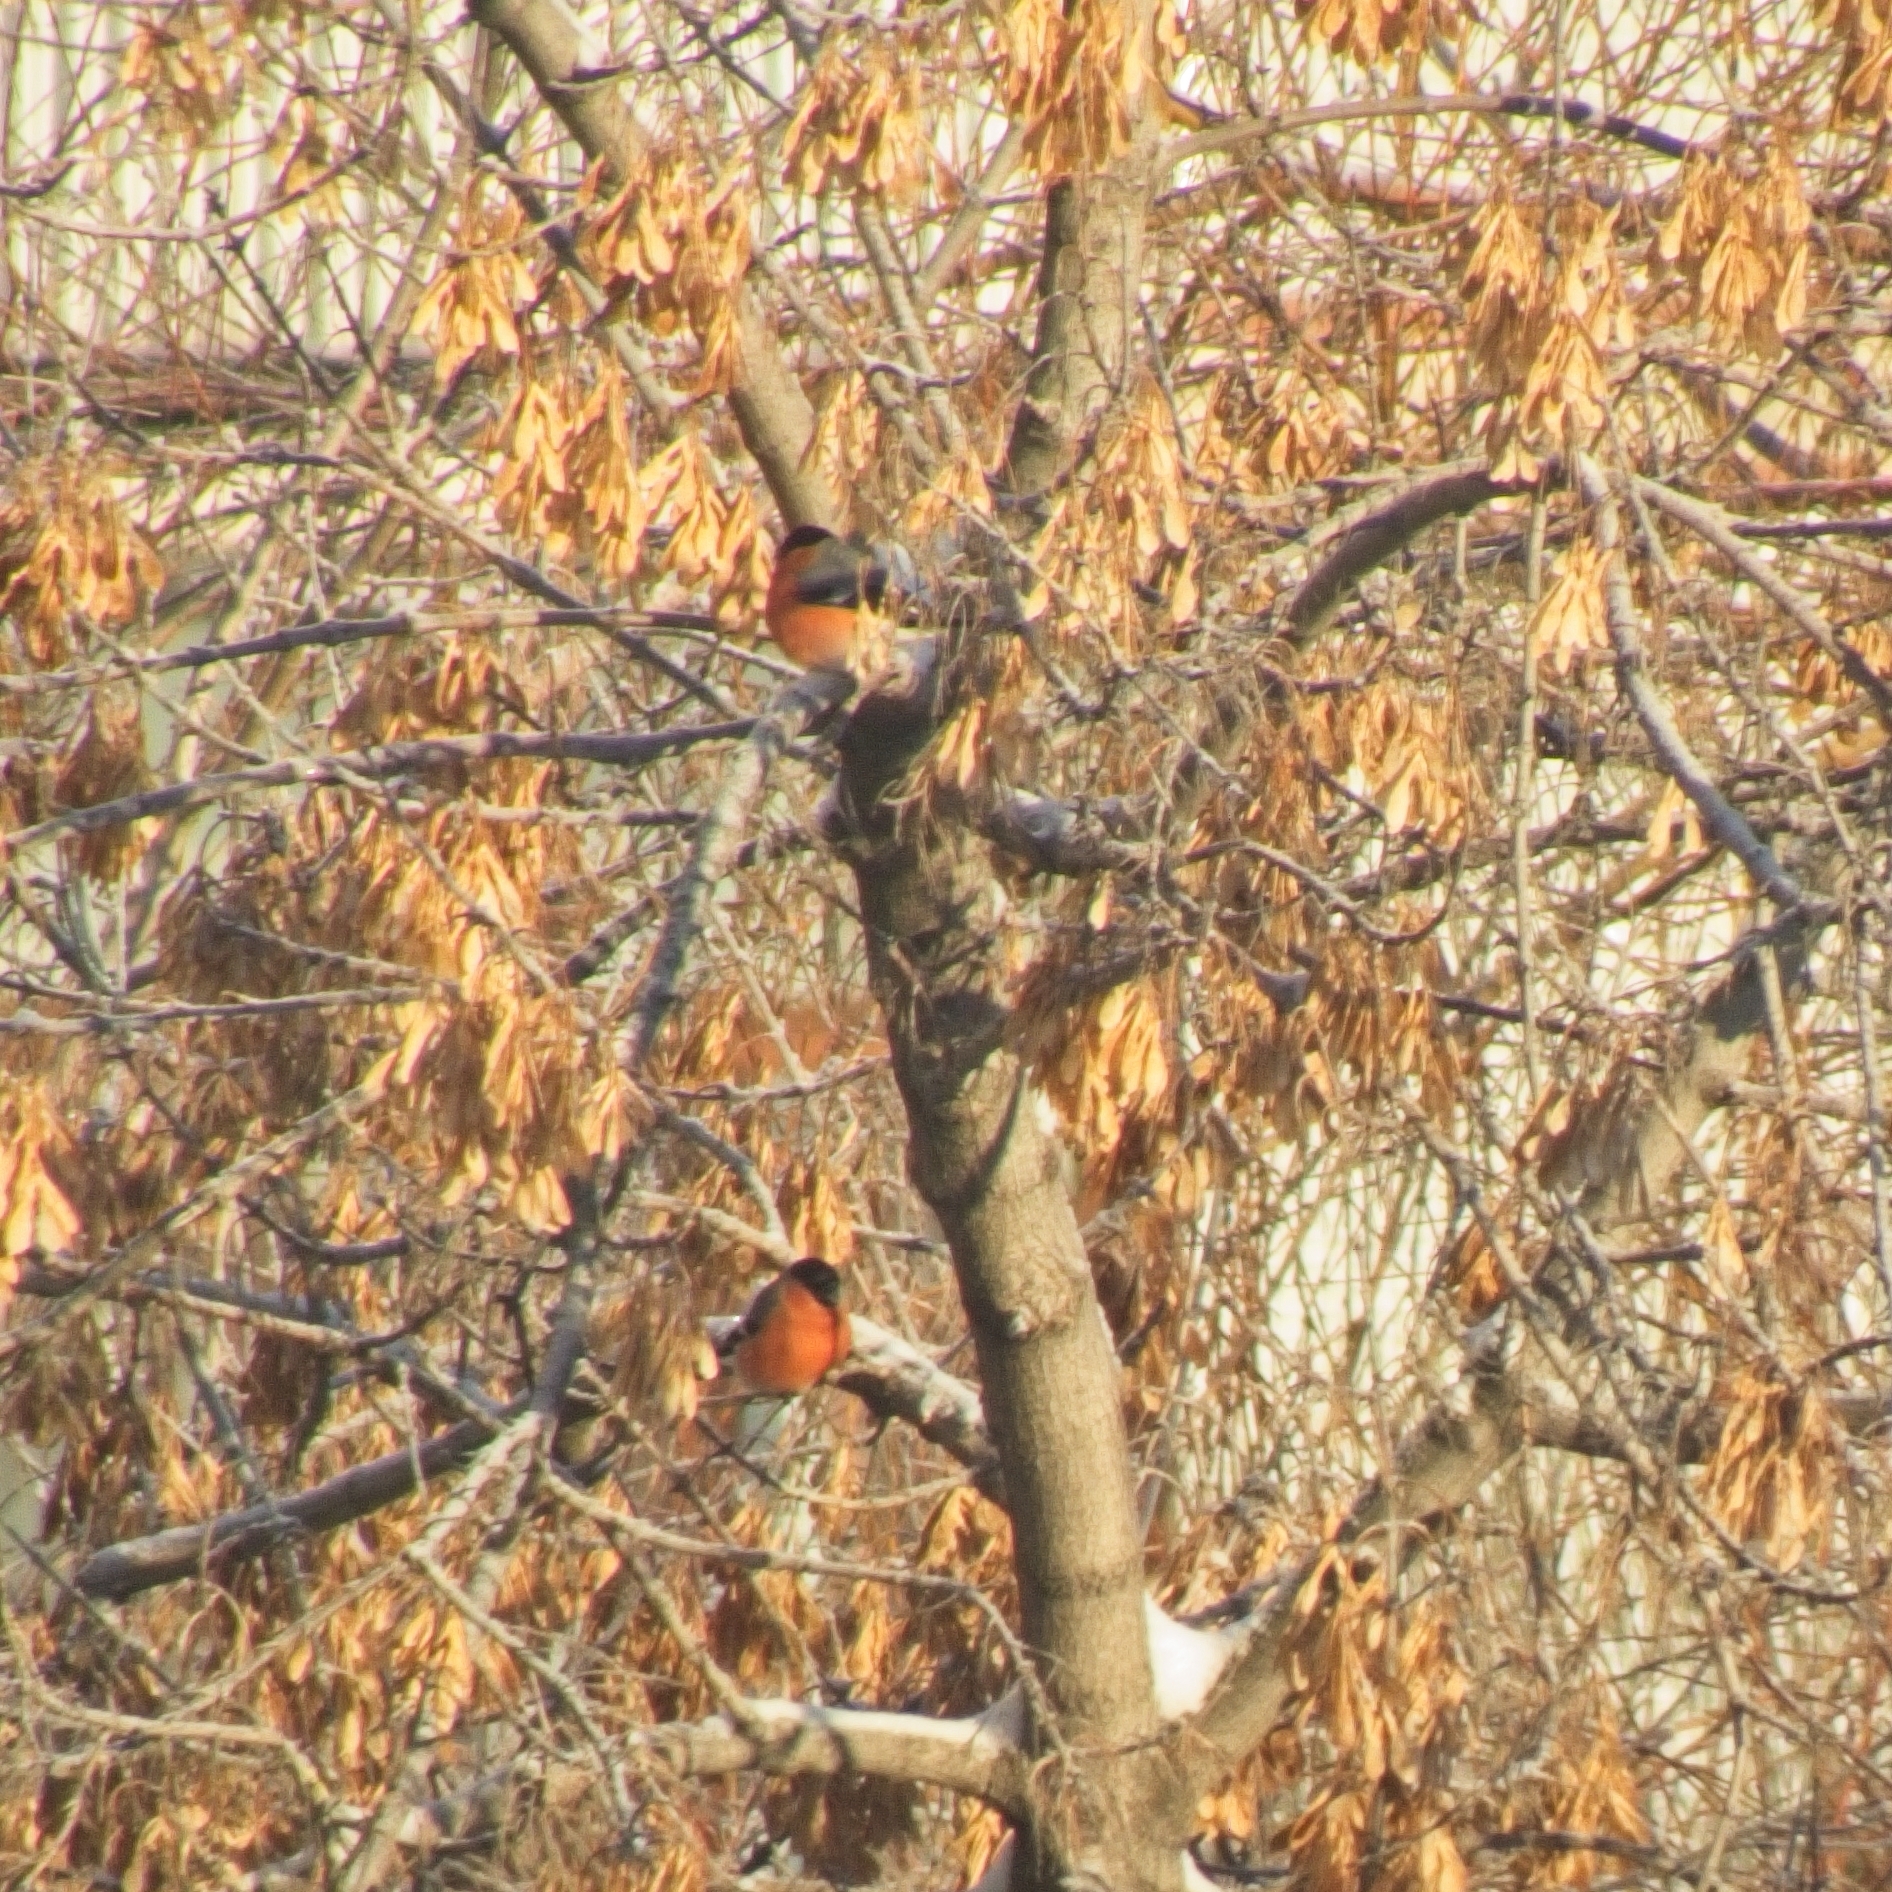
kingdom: Animalia
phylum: Chordata
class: Aves
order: Passeriformes
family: Fringillidae
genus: Pyrrhula
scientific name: Pyrrhula pyrrhula
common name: Eurasian bullfinch
